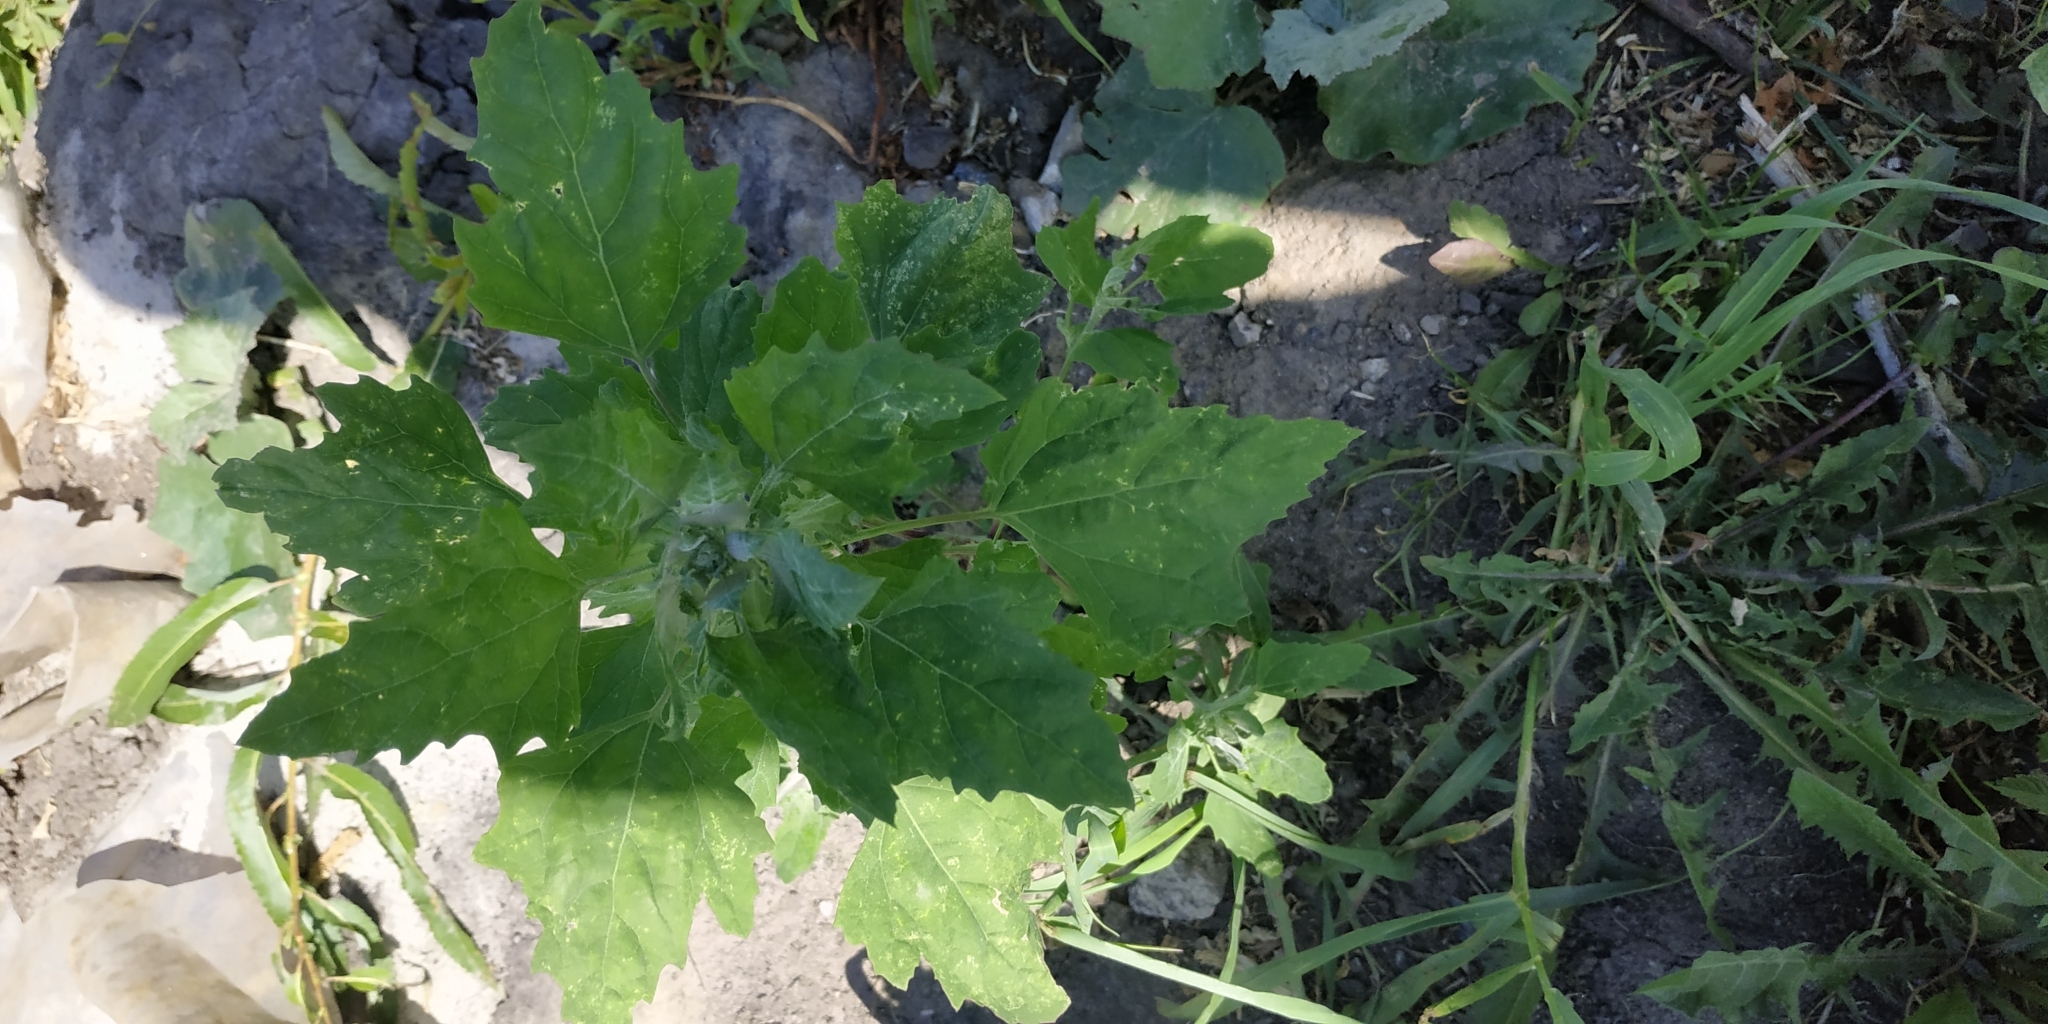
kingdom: Plantae
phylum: Tracheophyta
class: Magnoliopsida
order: Caryophyllales
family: Amaranthaceae
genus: Chenopodium
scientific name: Chenopodium album
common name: Fat-hen
